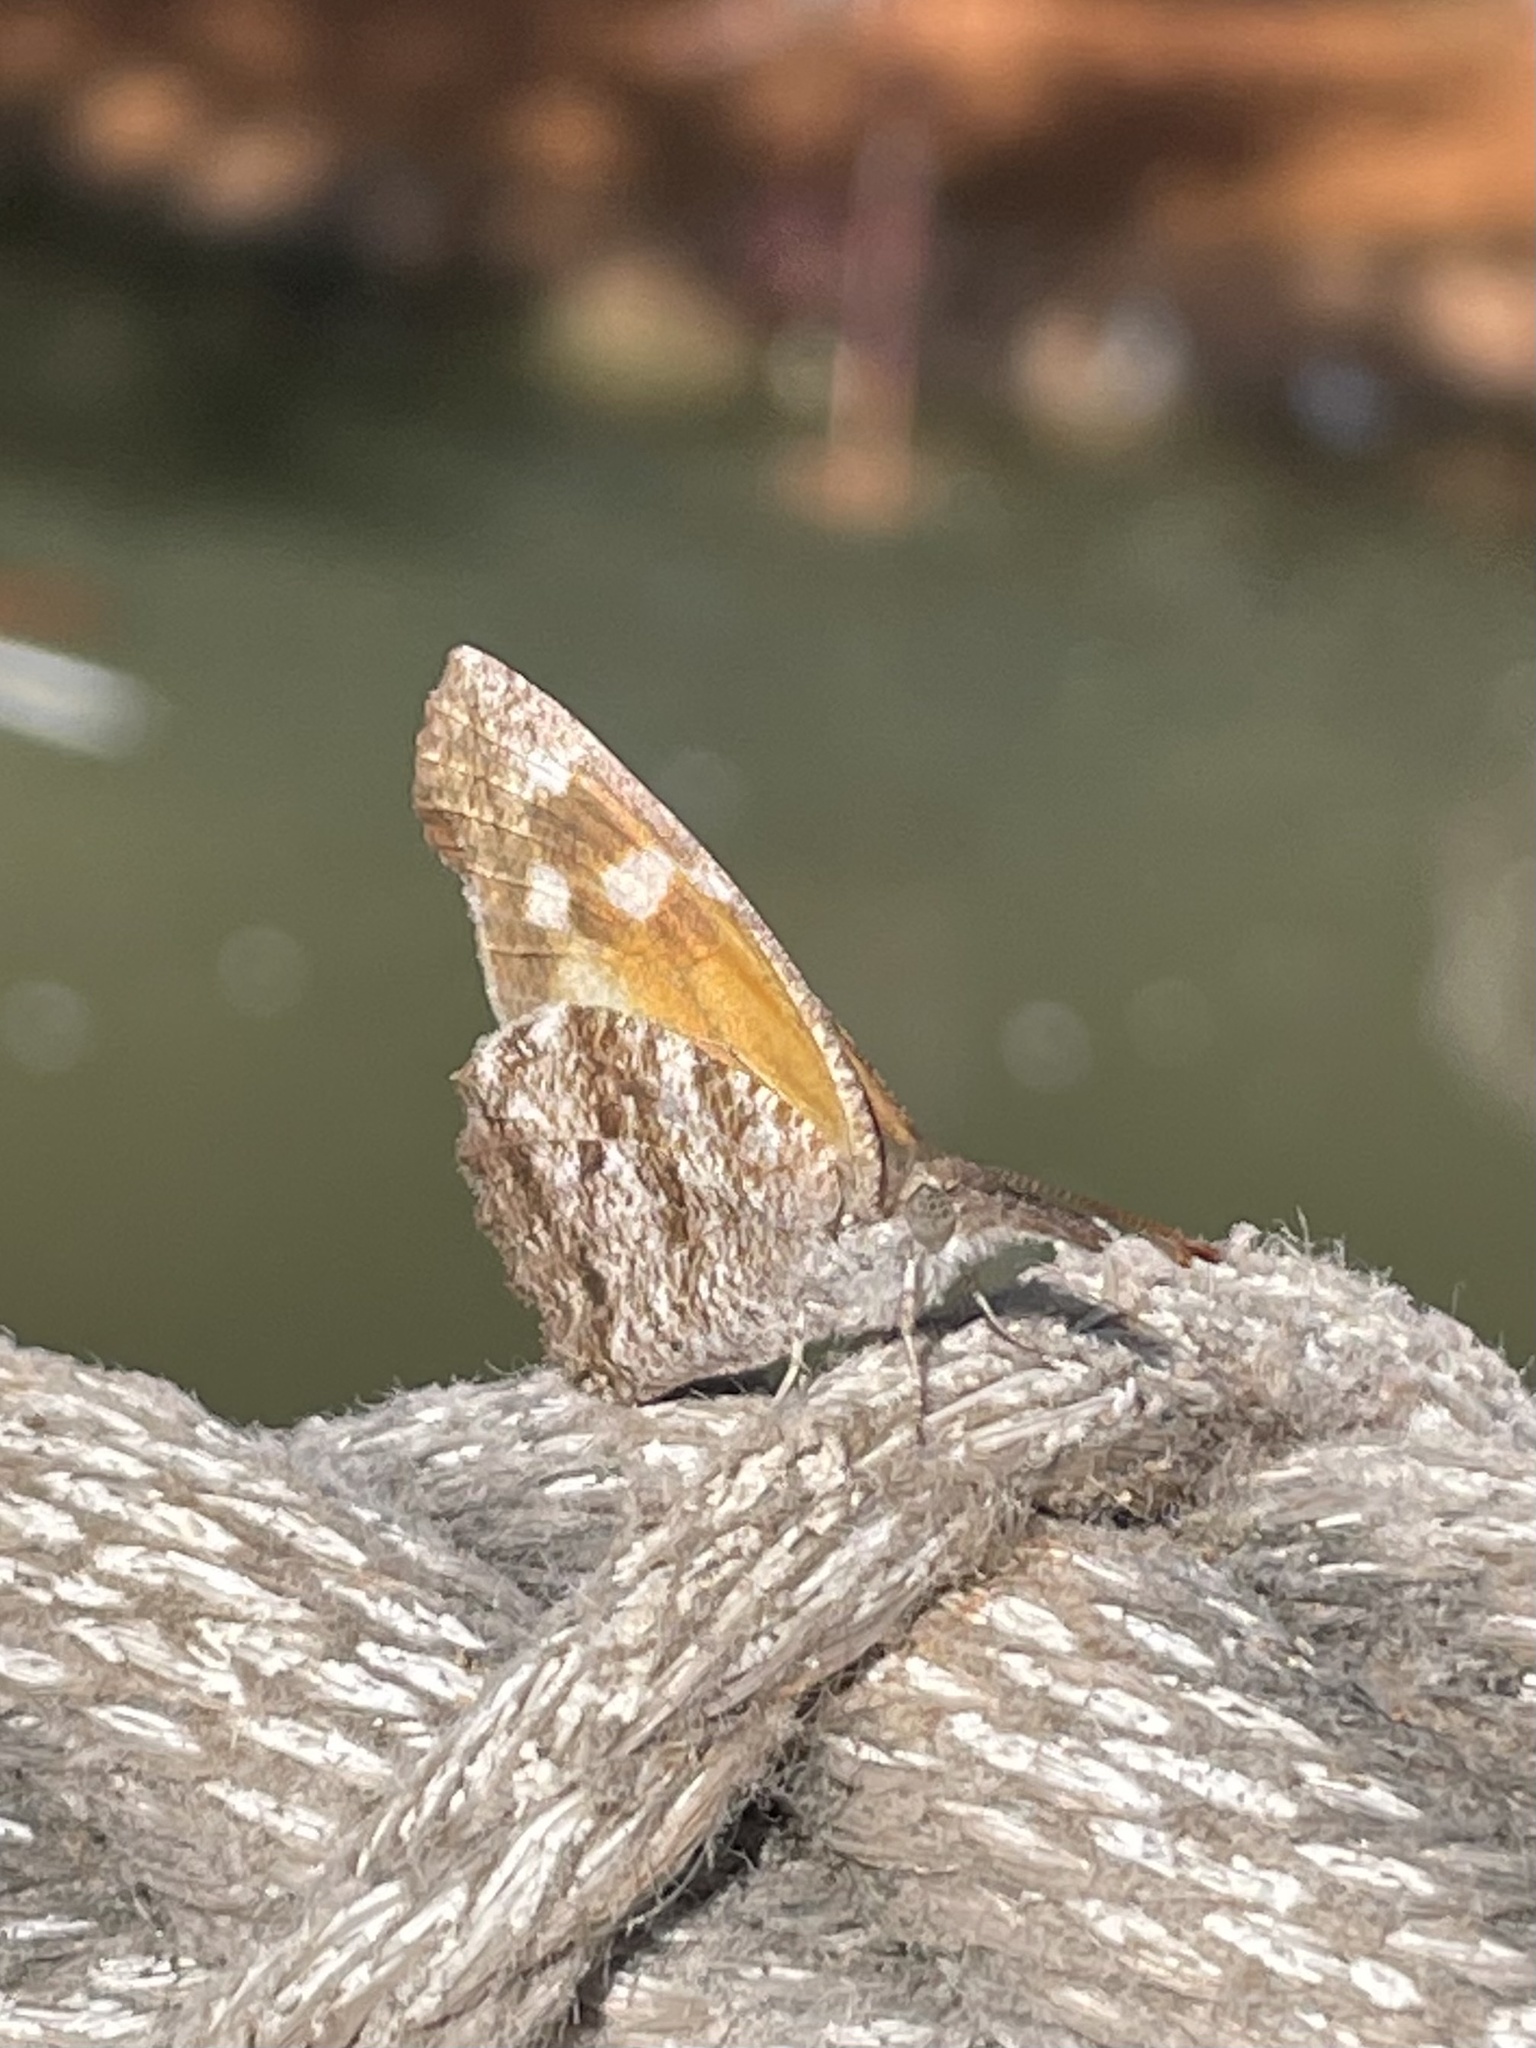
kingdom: Animalia
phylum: Arthropoda
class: Insecta
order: Lepidoptera
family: Nymphalidae
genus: Libytheana
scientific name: Libytheana carinenta
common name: American snout
